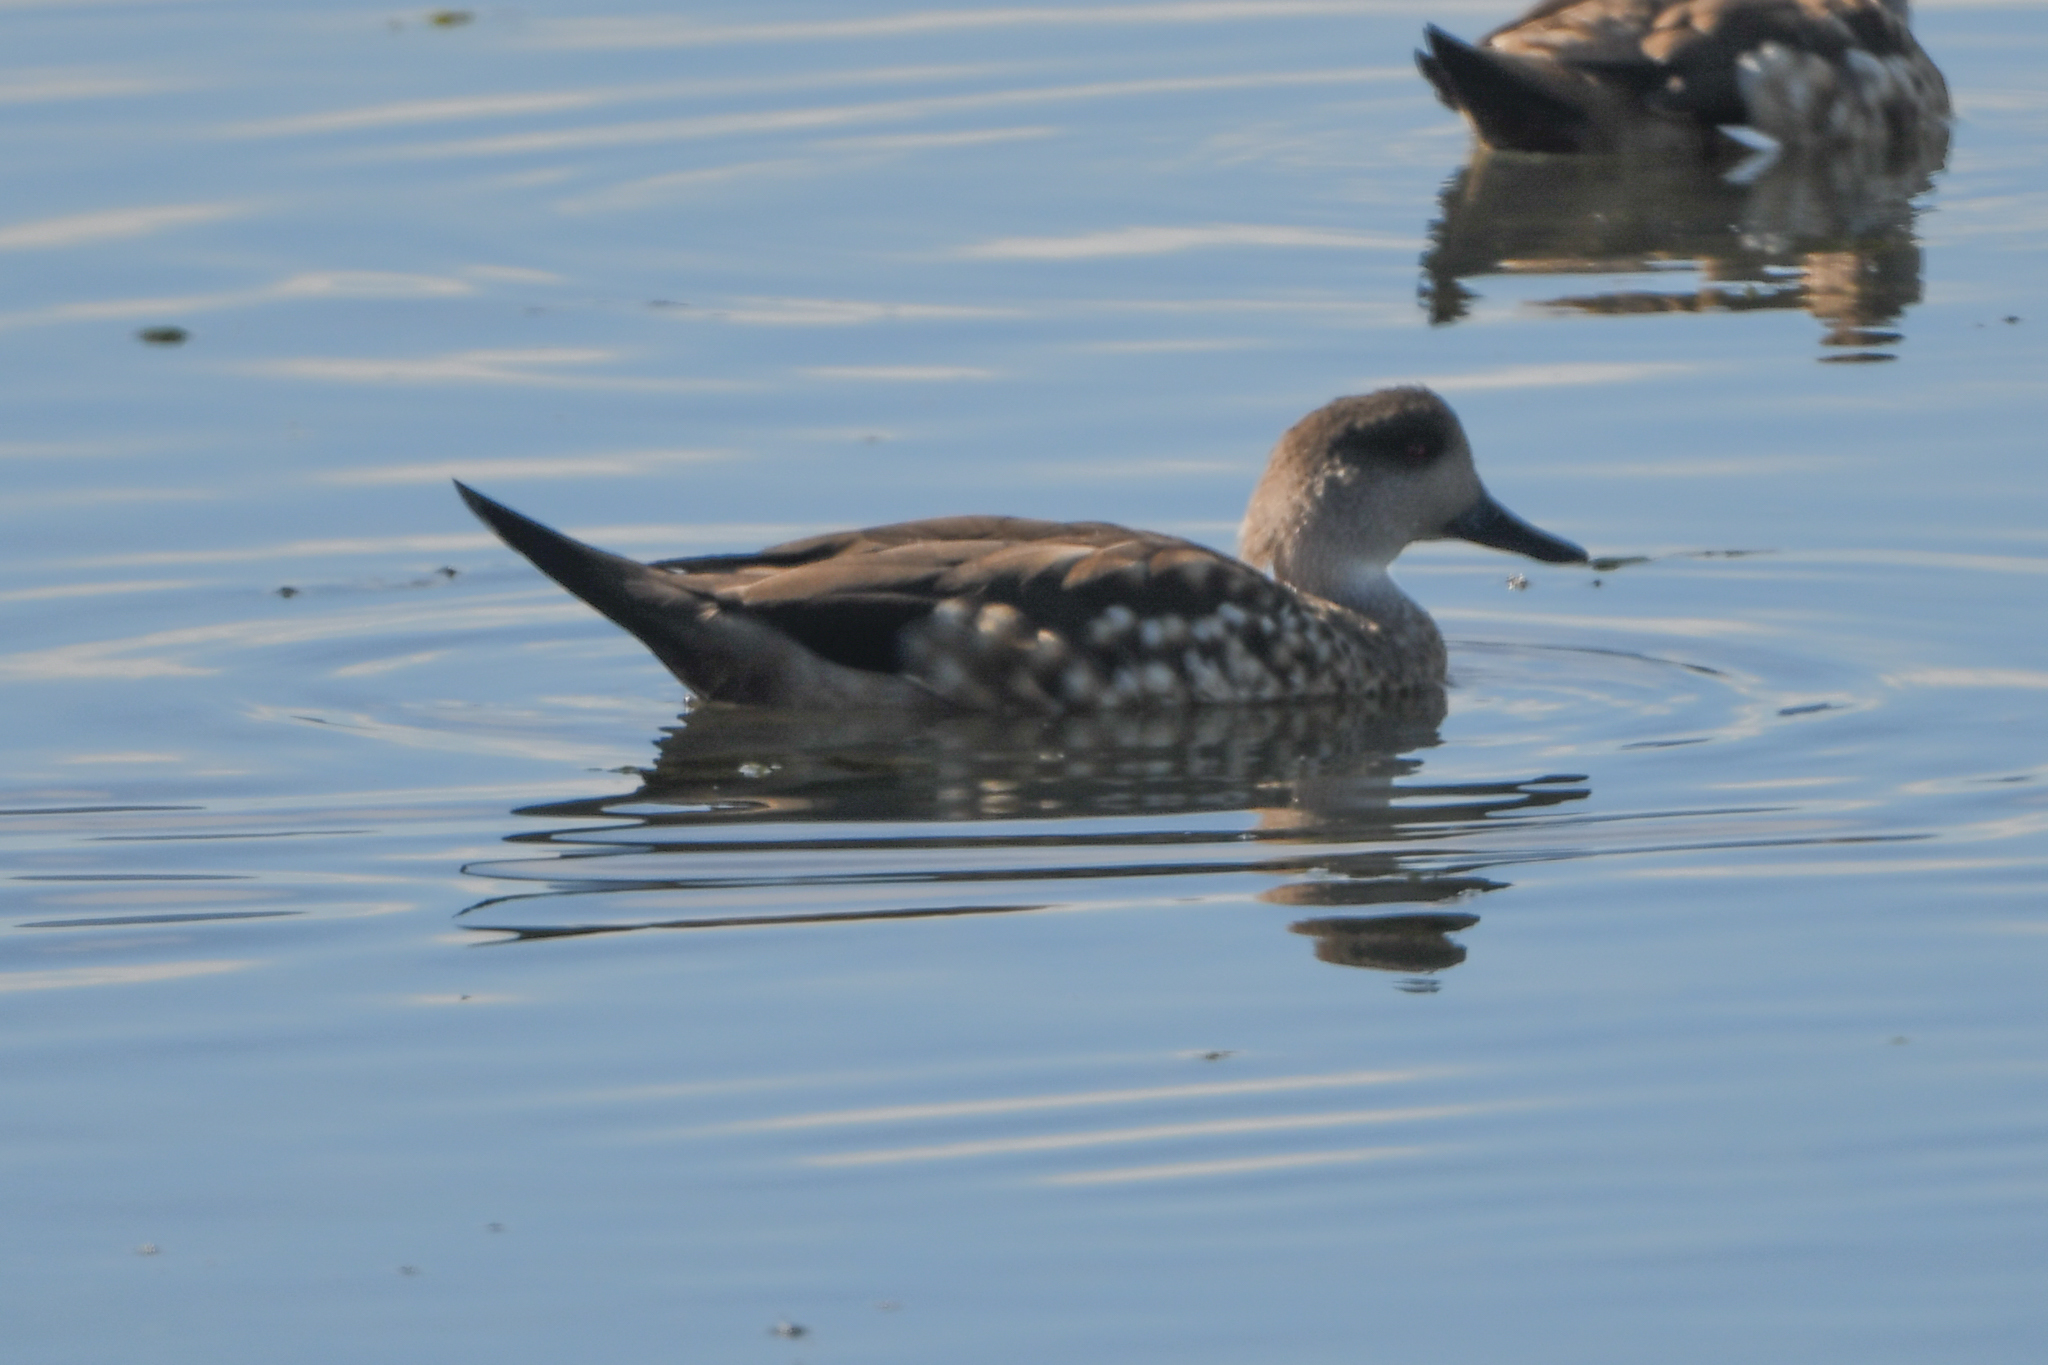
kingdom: Animalia
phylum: Chordata
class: Aves
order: Anseriformes
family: Anatidae
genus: Lophonetta
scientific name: Lophonetta specularioides
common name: Crested duck
